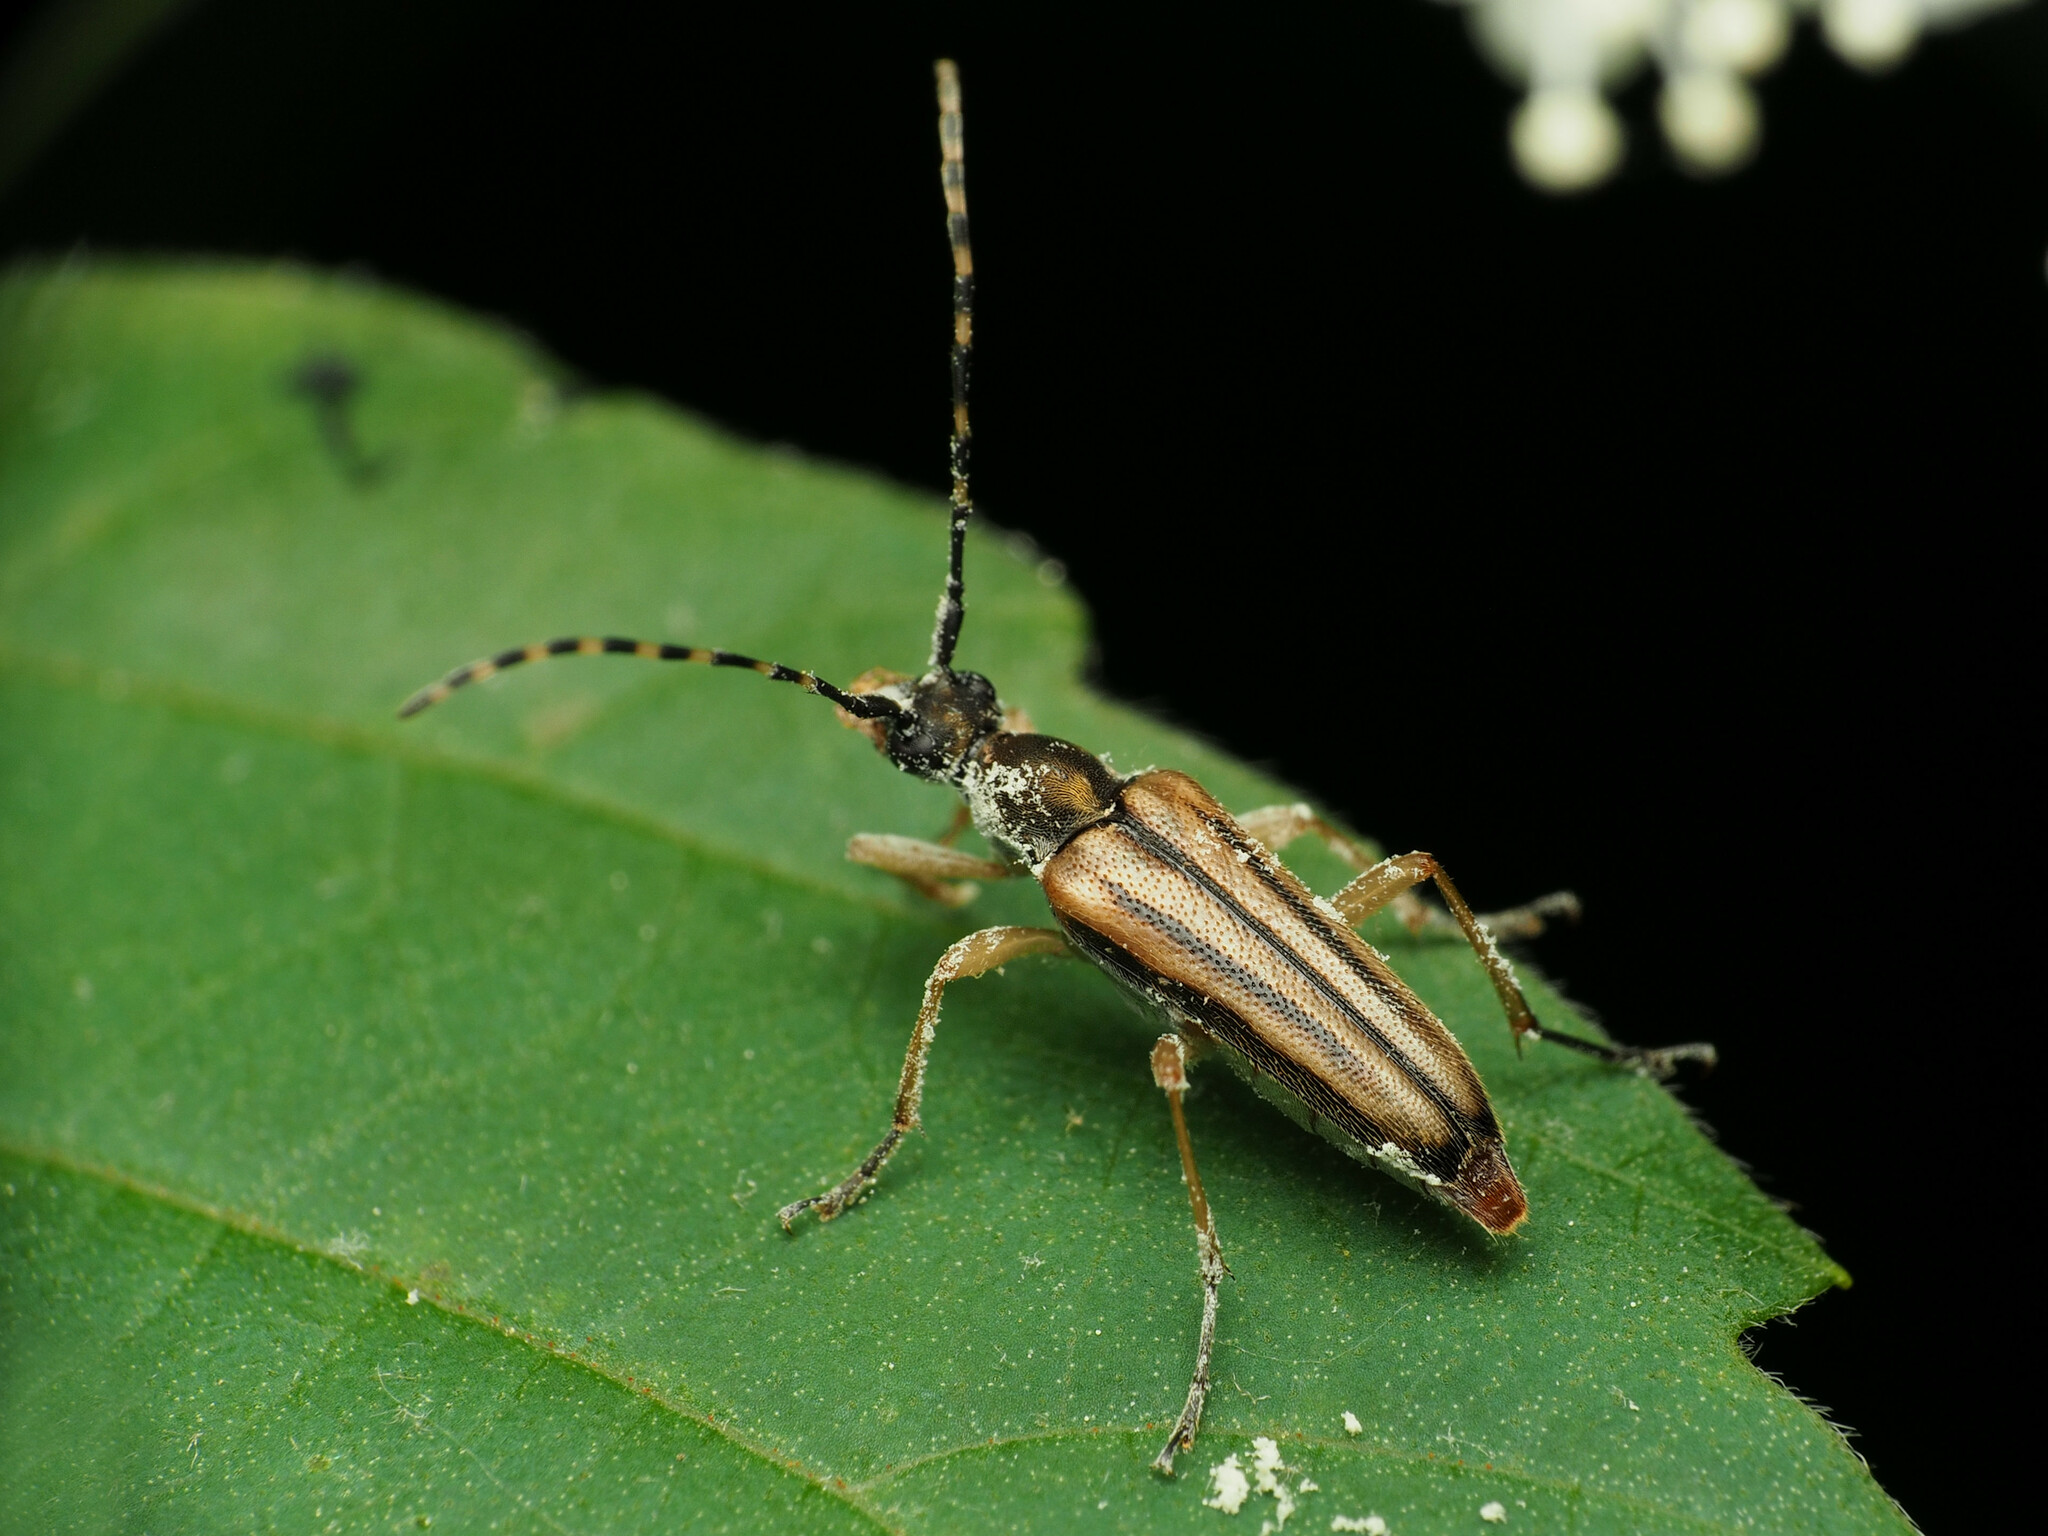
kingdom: Animalia
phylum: Arthropoda
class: Insecta
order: Coleoptera
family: Cerambycidae
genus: Analeptura
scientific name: Analeptura lineola
